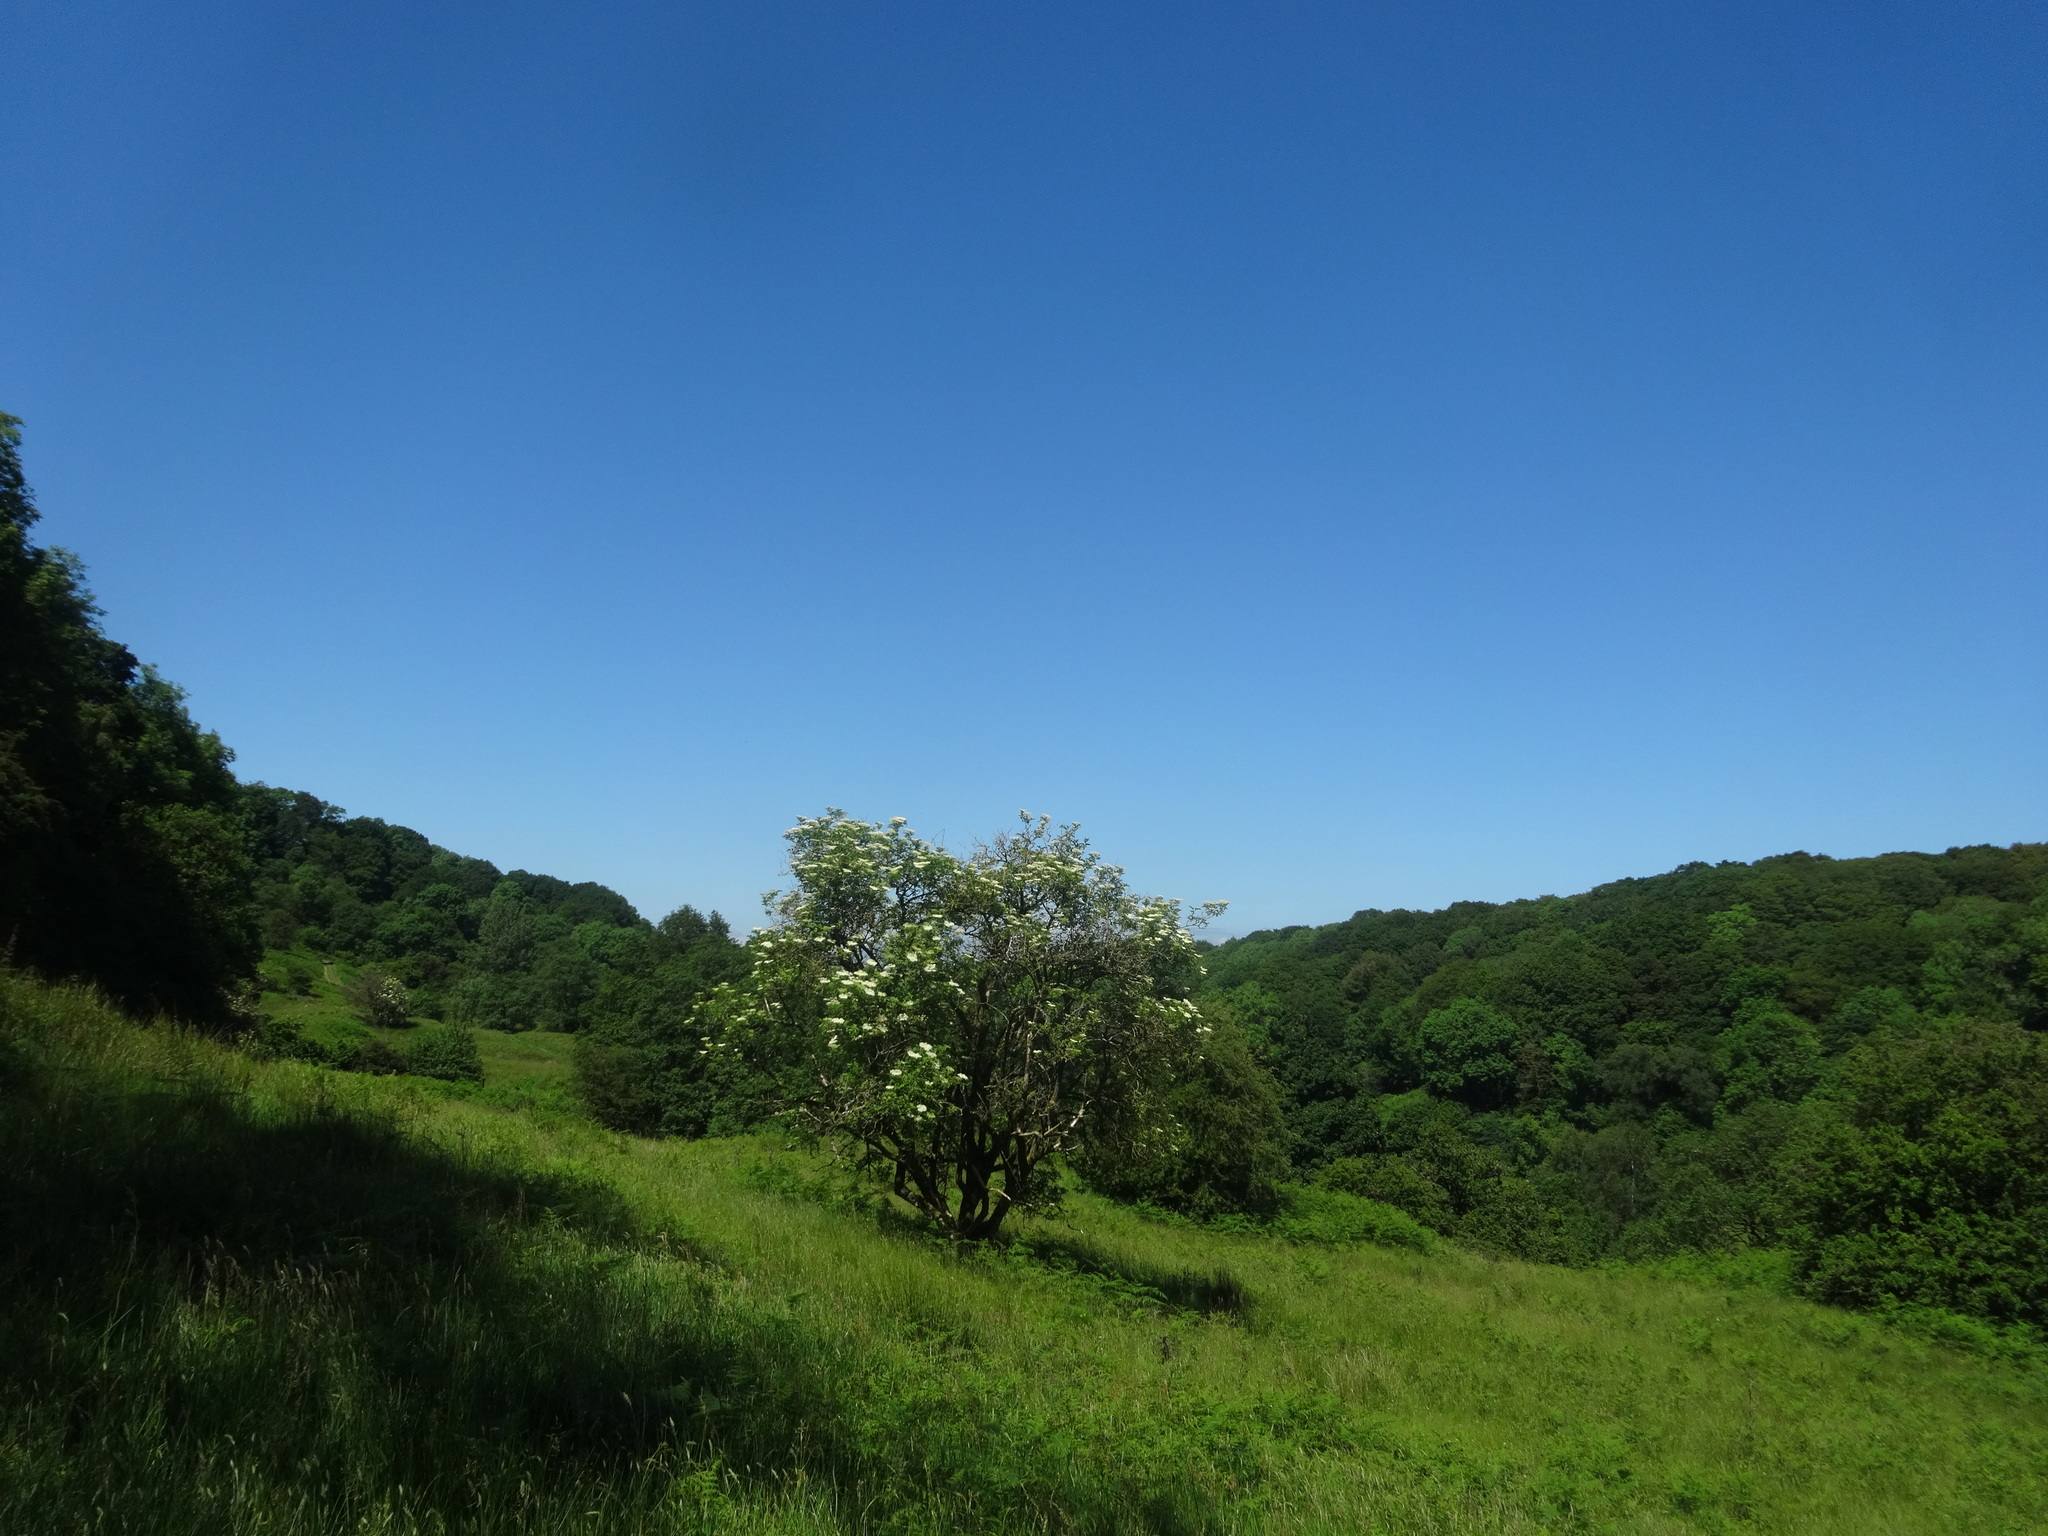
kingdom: Plantae
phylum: Tracheophyta
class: Magnoliopsida
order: Dipsacales
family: Viburnaceae
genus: Sambucus
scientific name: Sambucus nigra
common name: Elder
